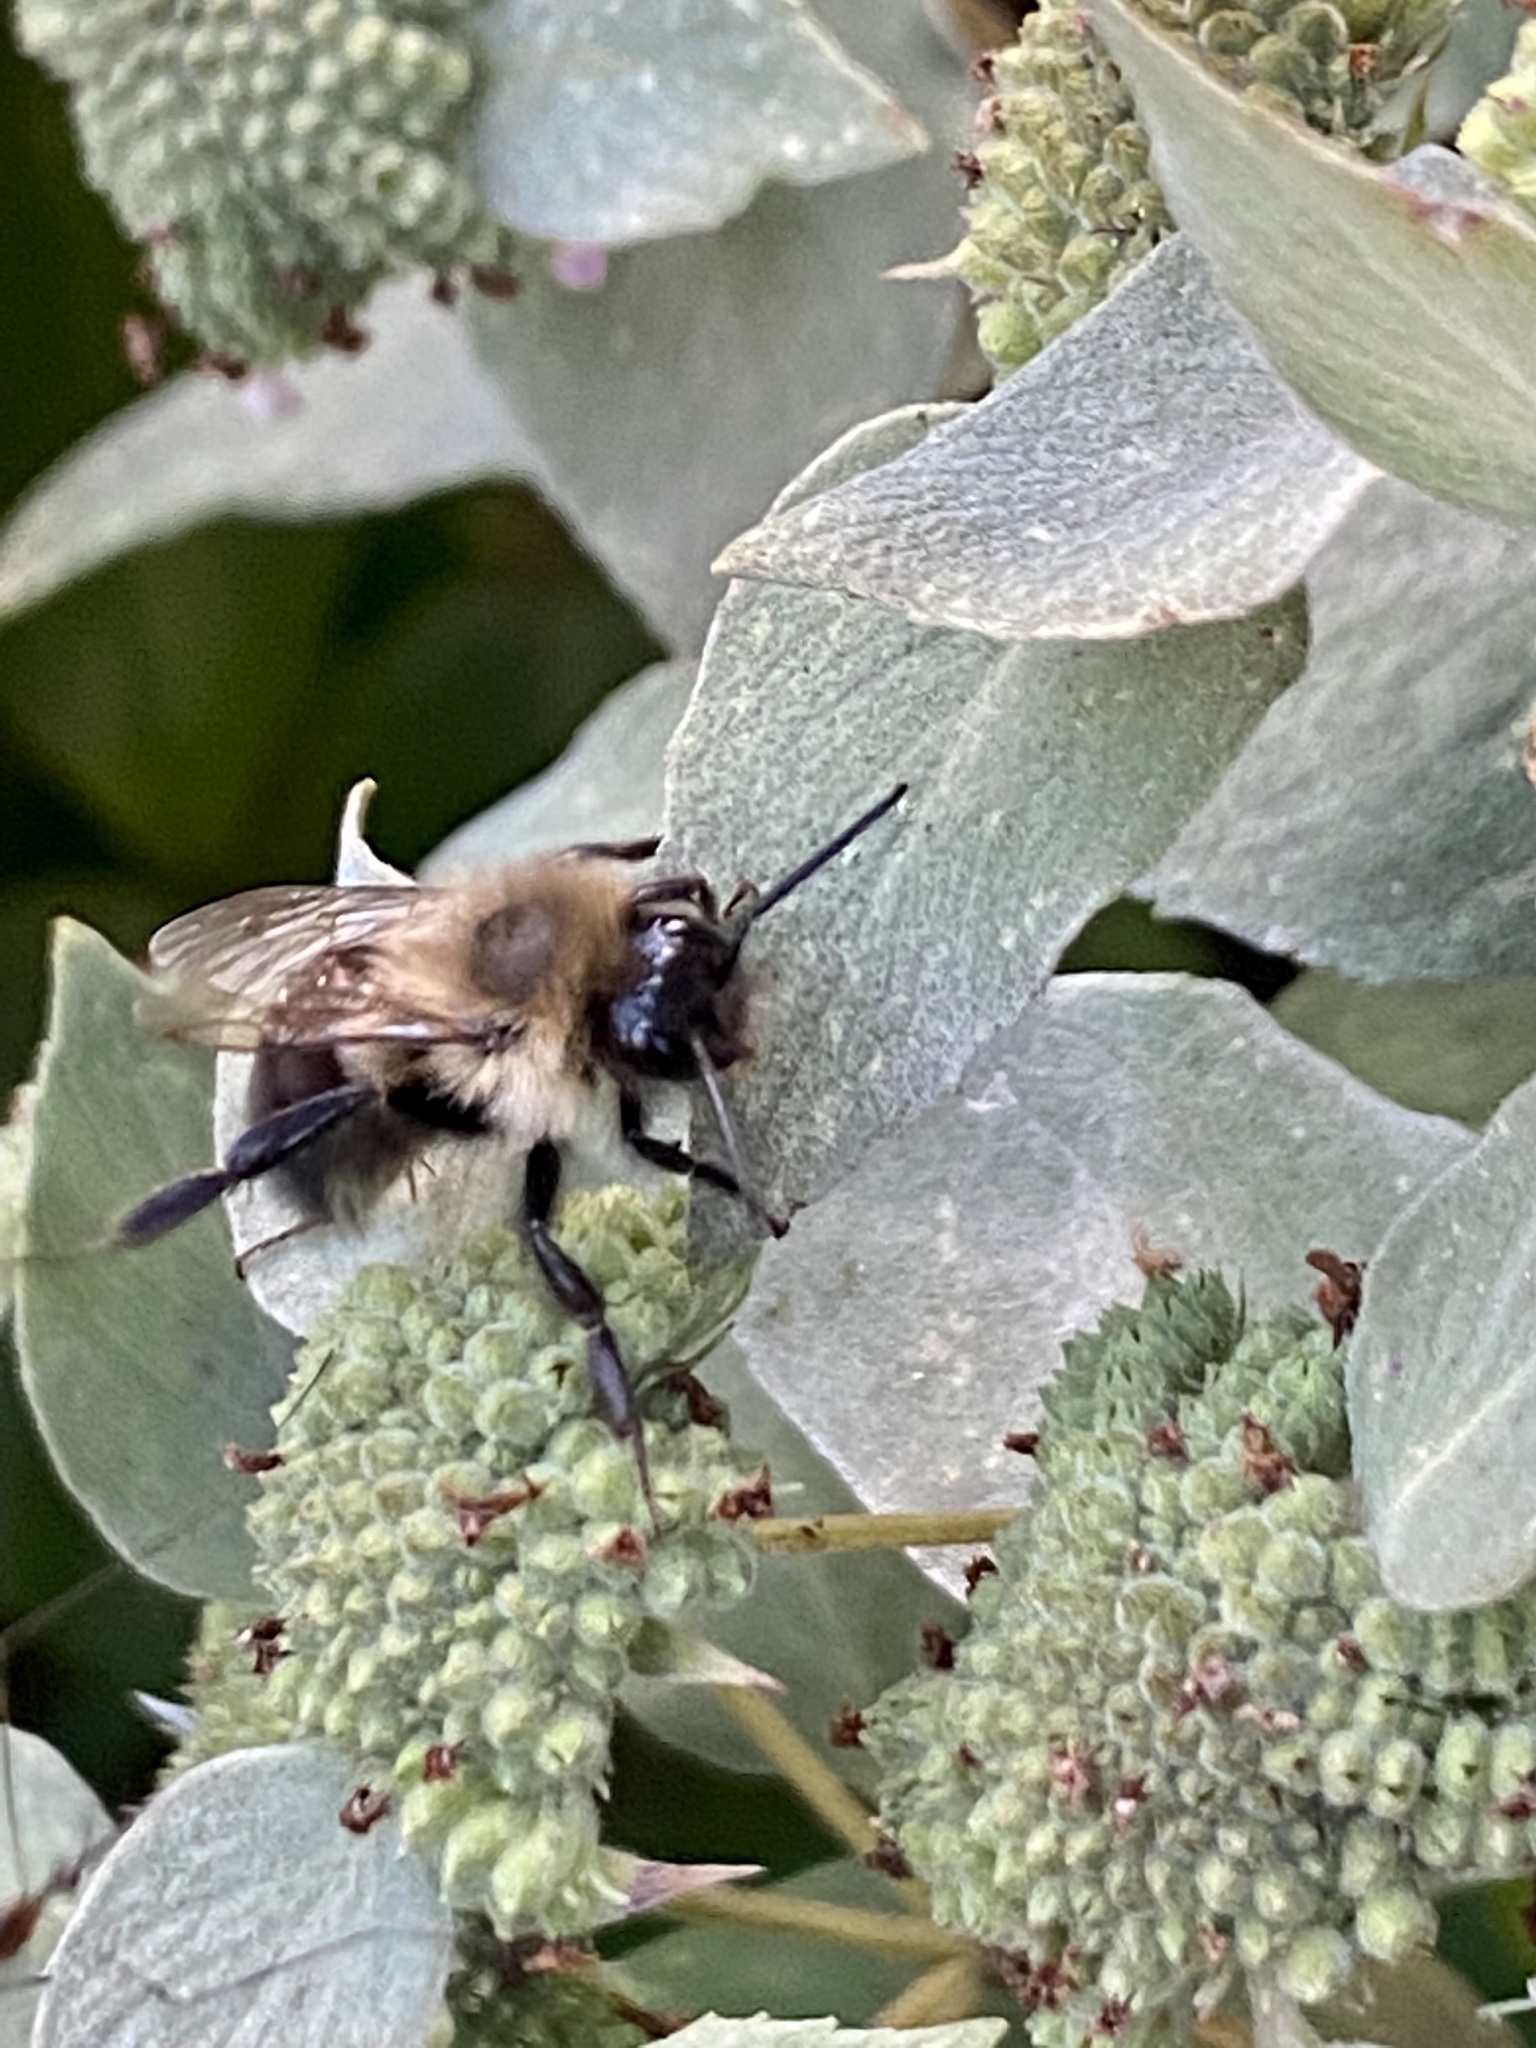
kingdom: Animalia
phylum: Arthropoda
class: Insecta
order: Hymenoptera
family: Apidae
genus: Bombus
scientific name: Bombus impatiens
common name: Common eastern bumble bee
